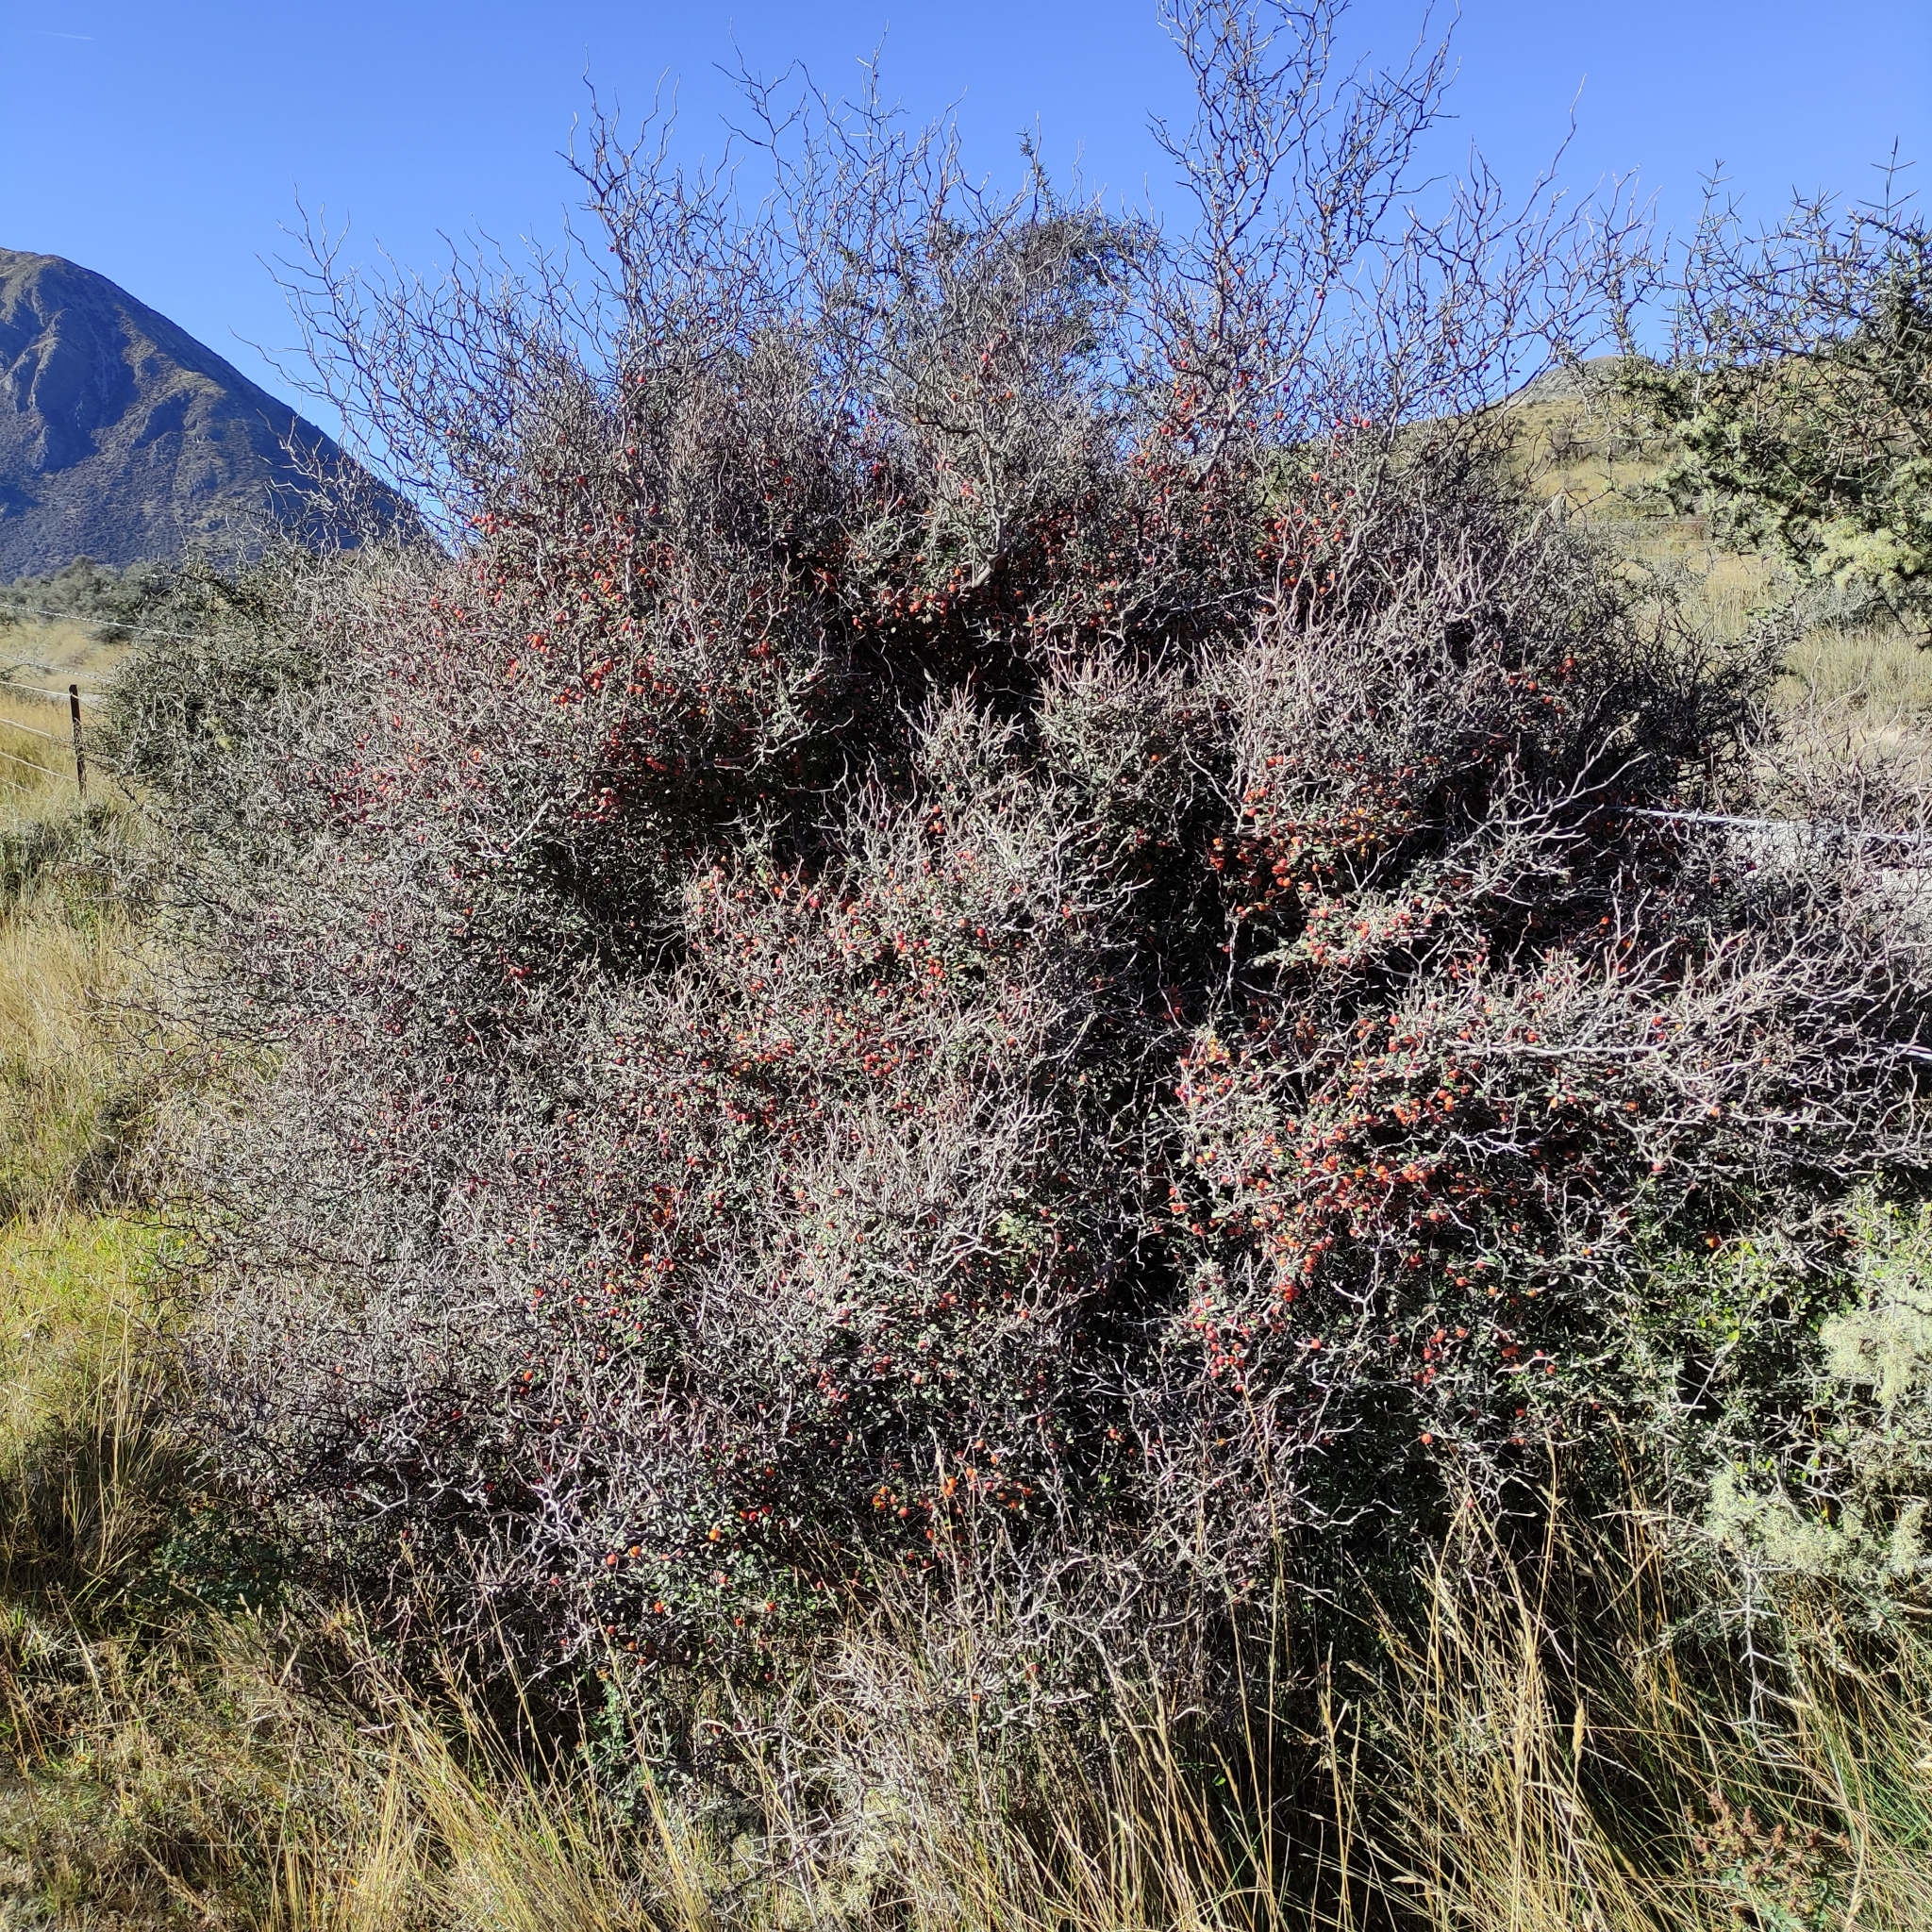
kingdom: Plantae
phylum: Tracheophyta
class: Magnoliopsida
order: Asterales
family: Argophyllaceae
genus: Corokia
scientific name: Corokia cotoneaster
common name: Wire nettingbush
